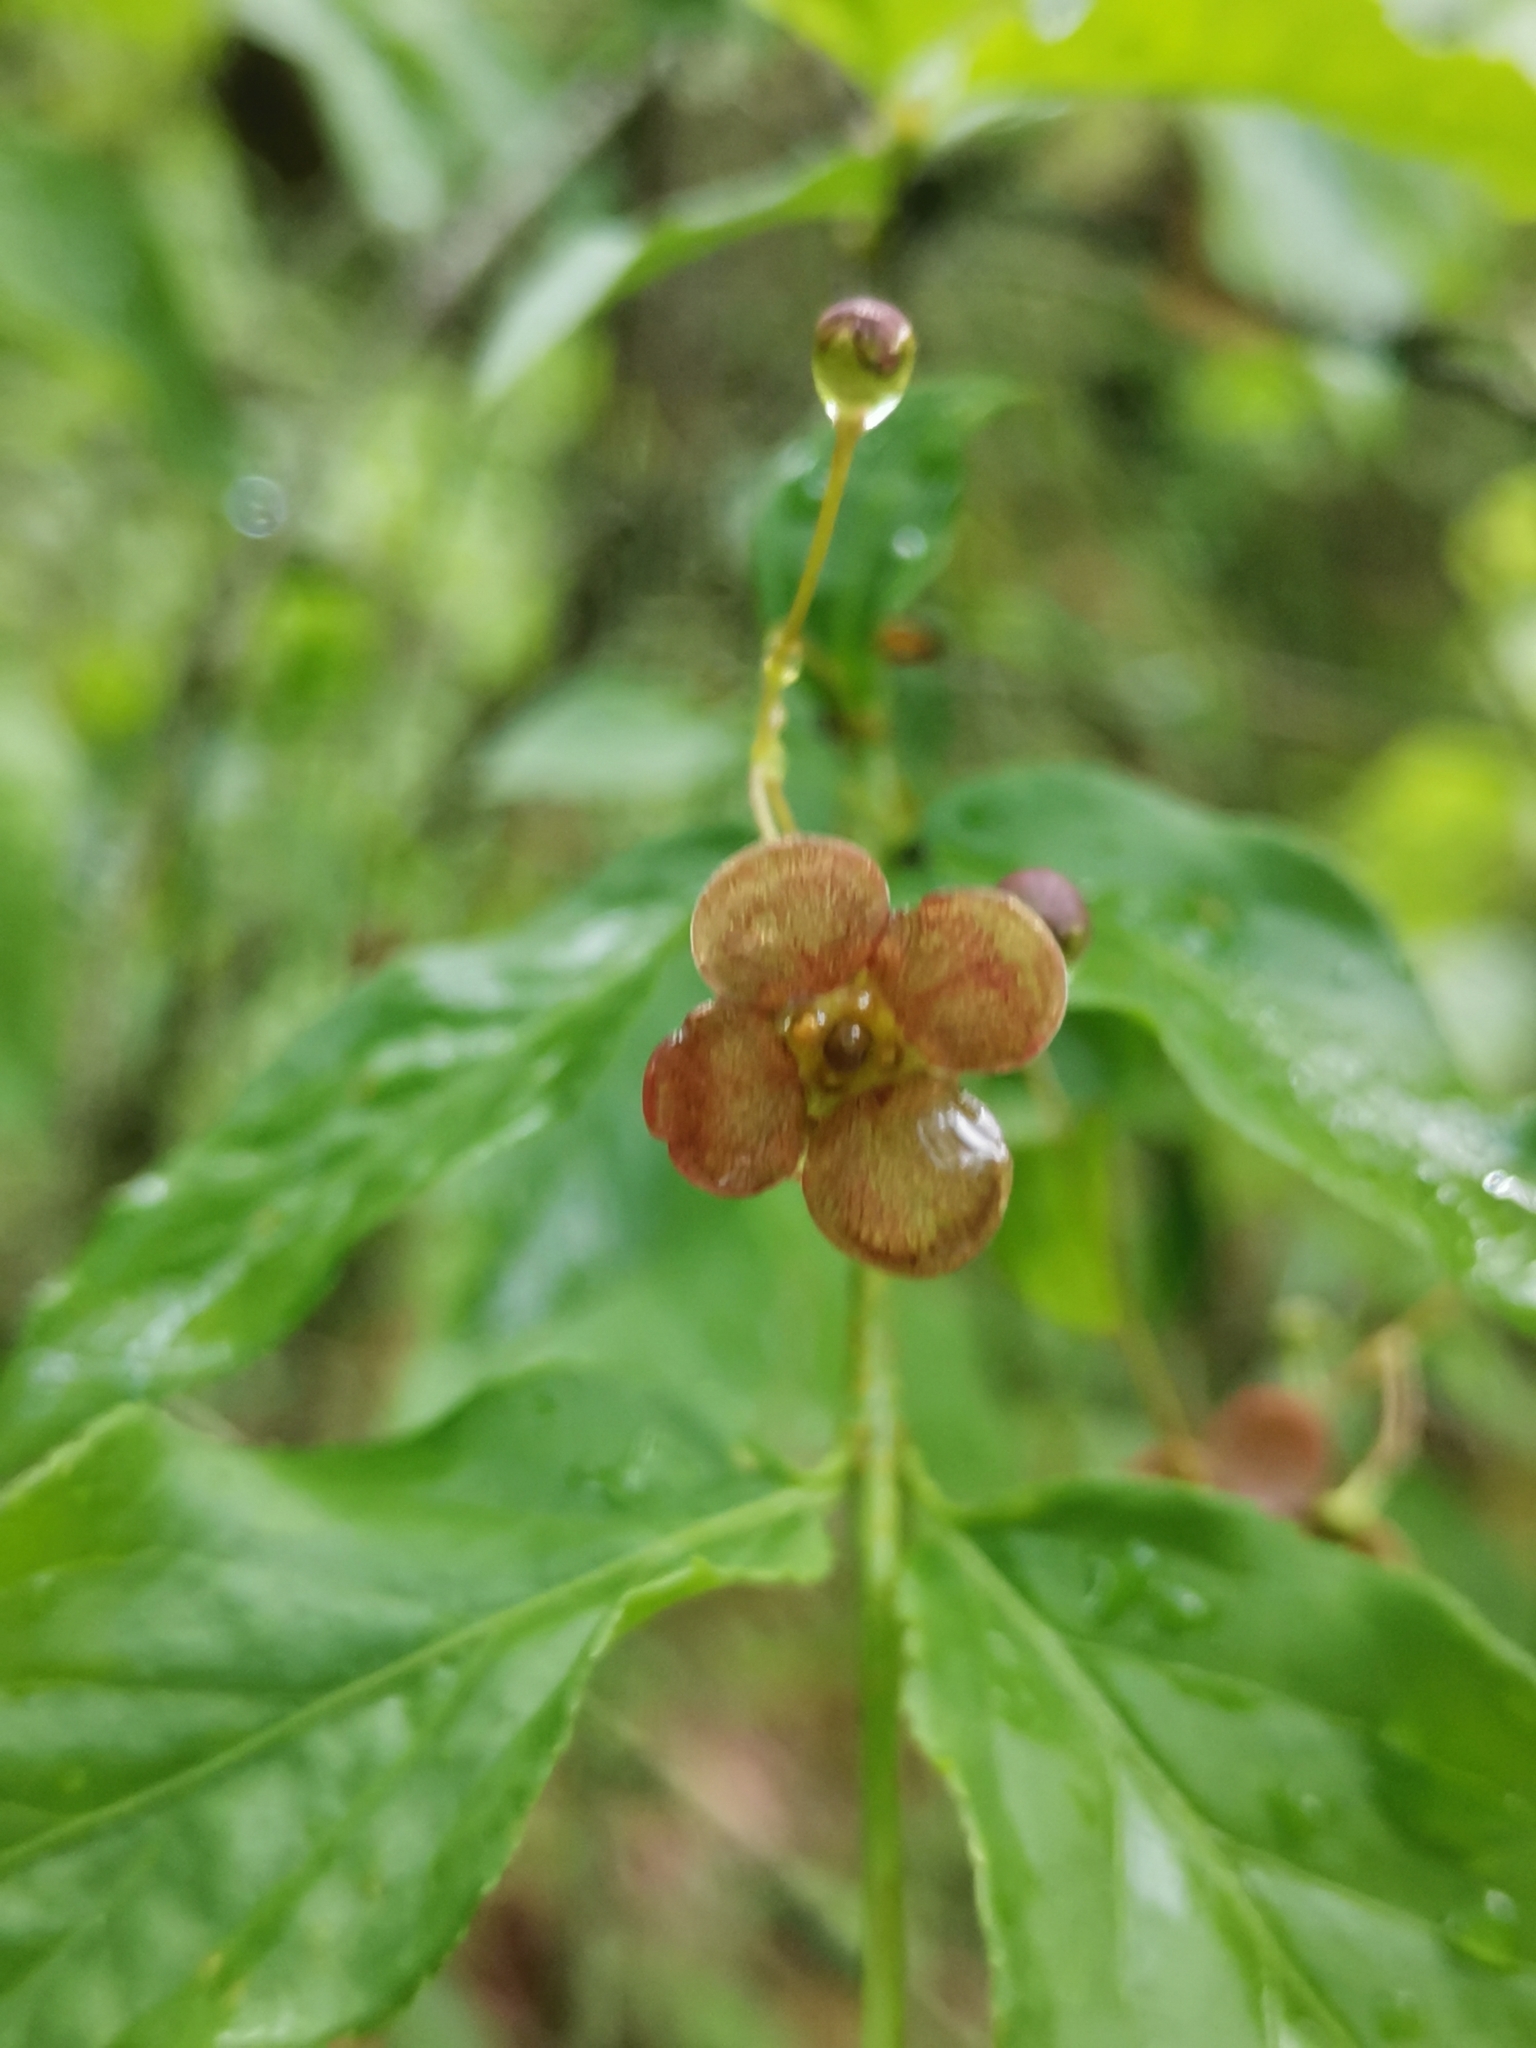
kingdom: Plantae
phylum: Tracheophyta
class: Magnoliopsida
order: Celastrales
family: Celastraceae
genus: Euonymus
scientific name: Euonymus verrucosus
